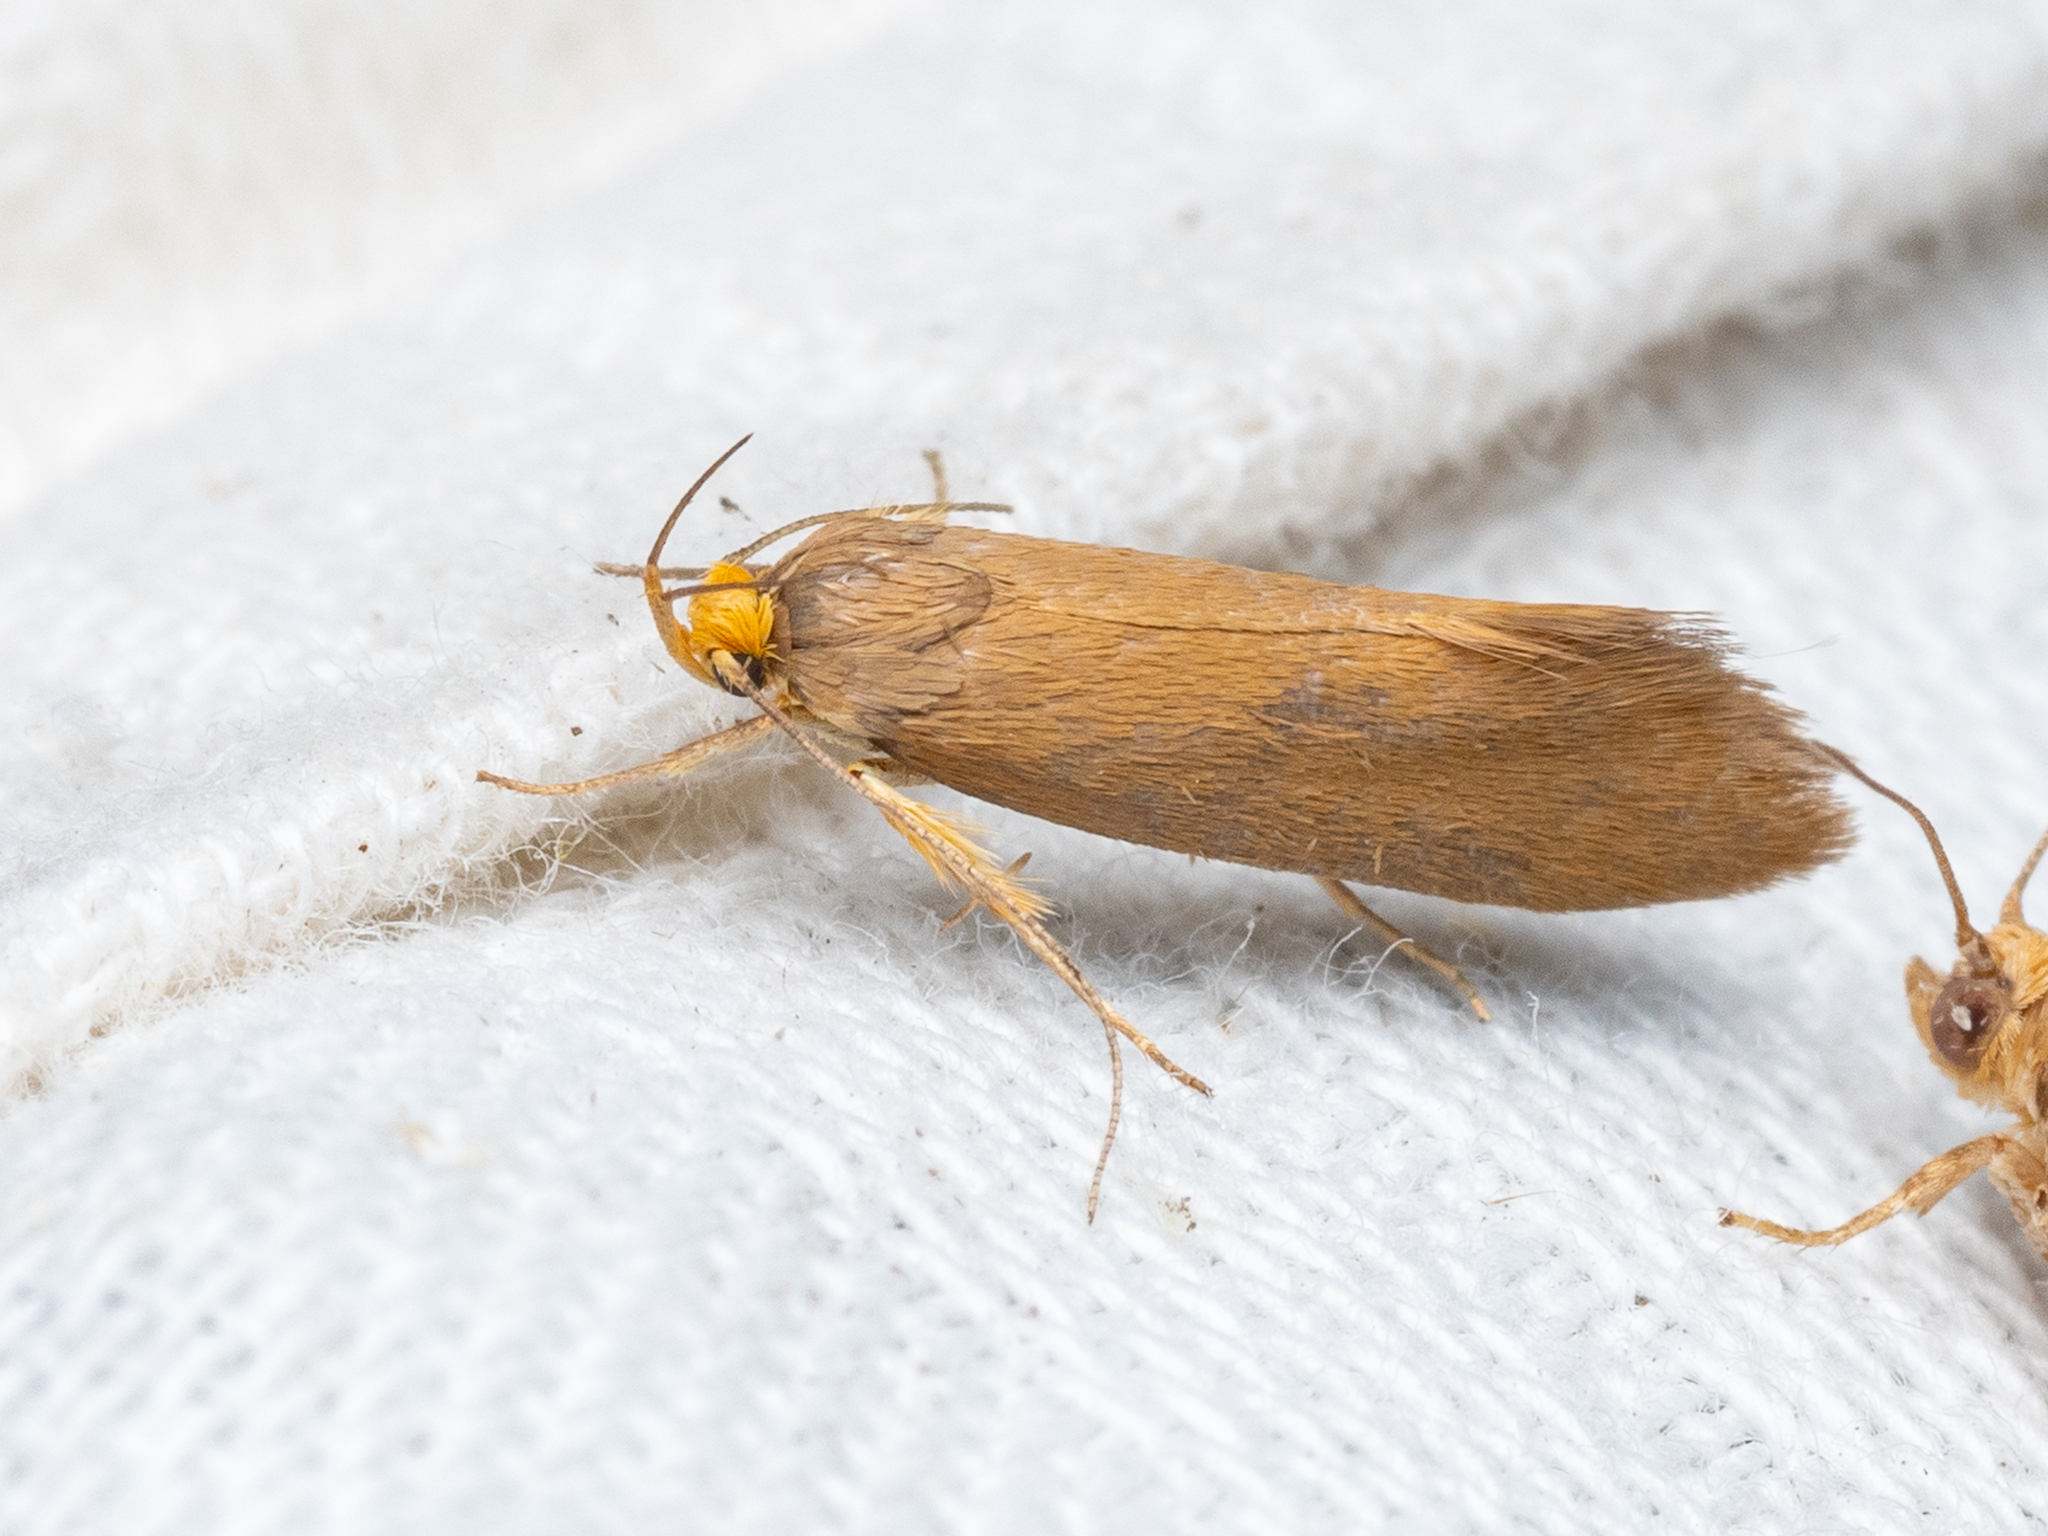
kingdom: Animalia
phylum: Arthropoda
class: Insecta
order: Lepidoptera
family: Oecophoridae
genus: Borkhausenia
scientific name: Borkhausenia Crassa unitella
